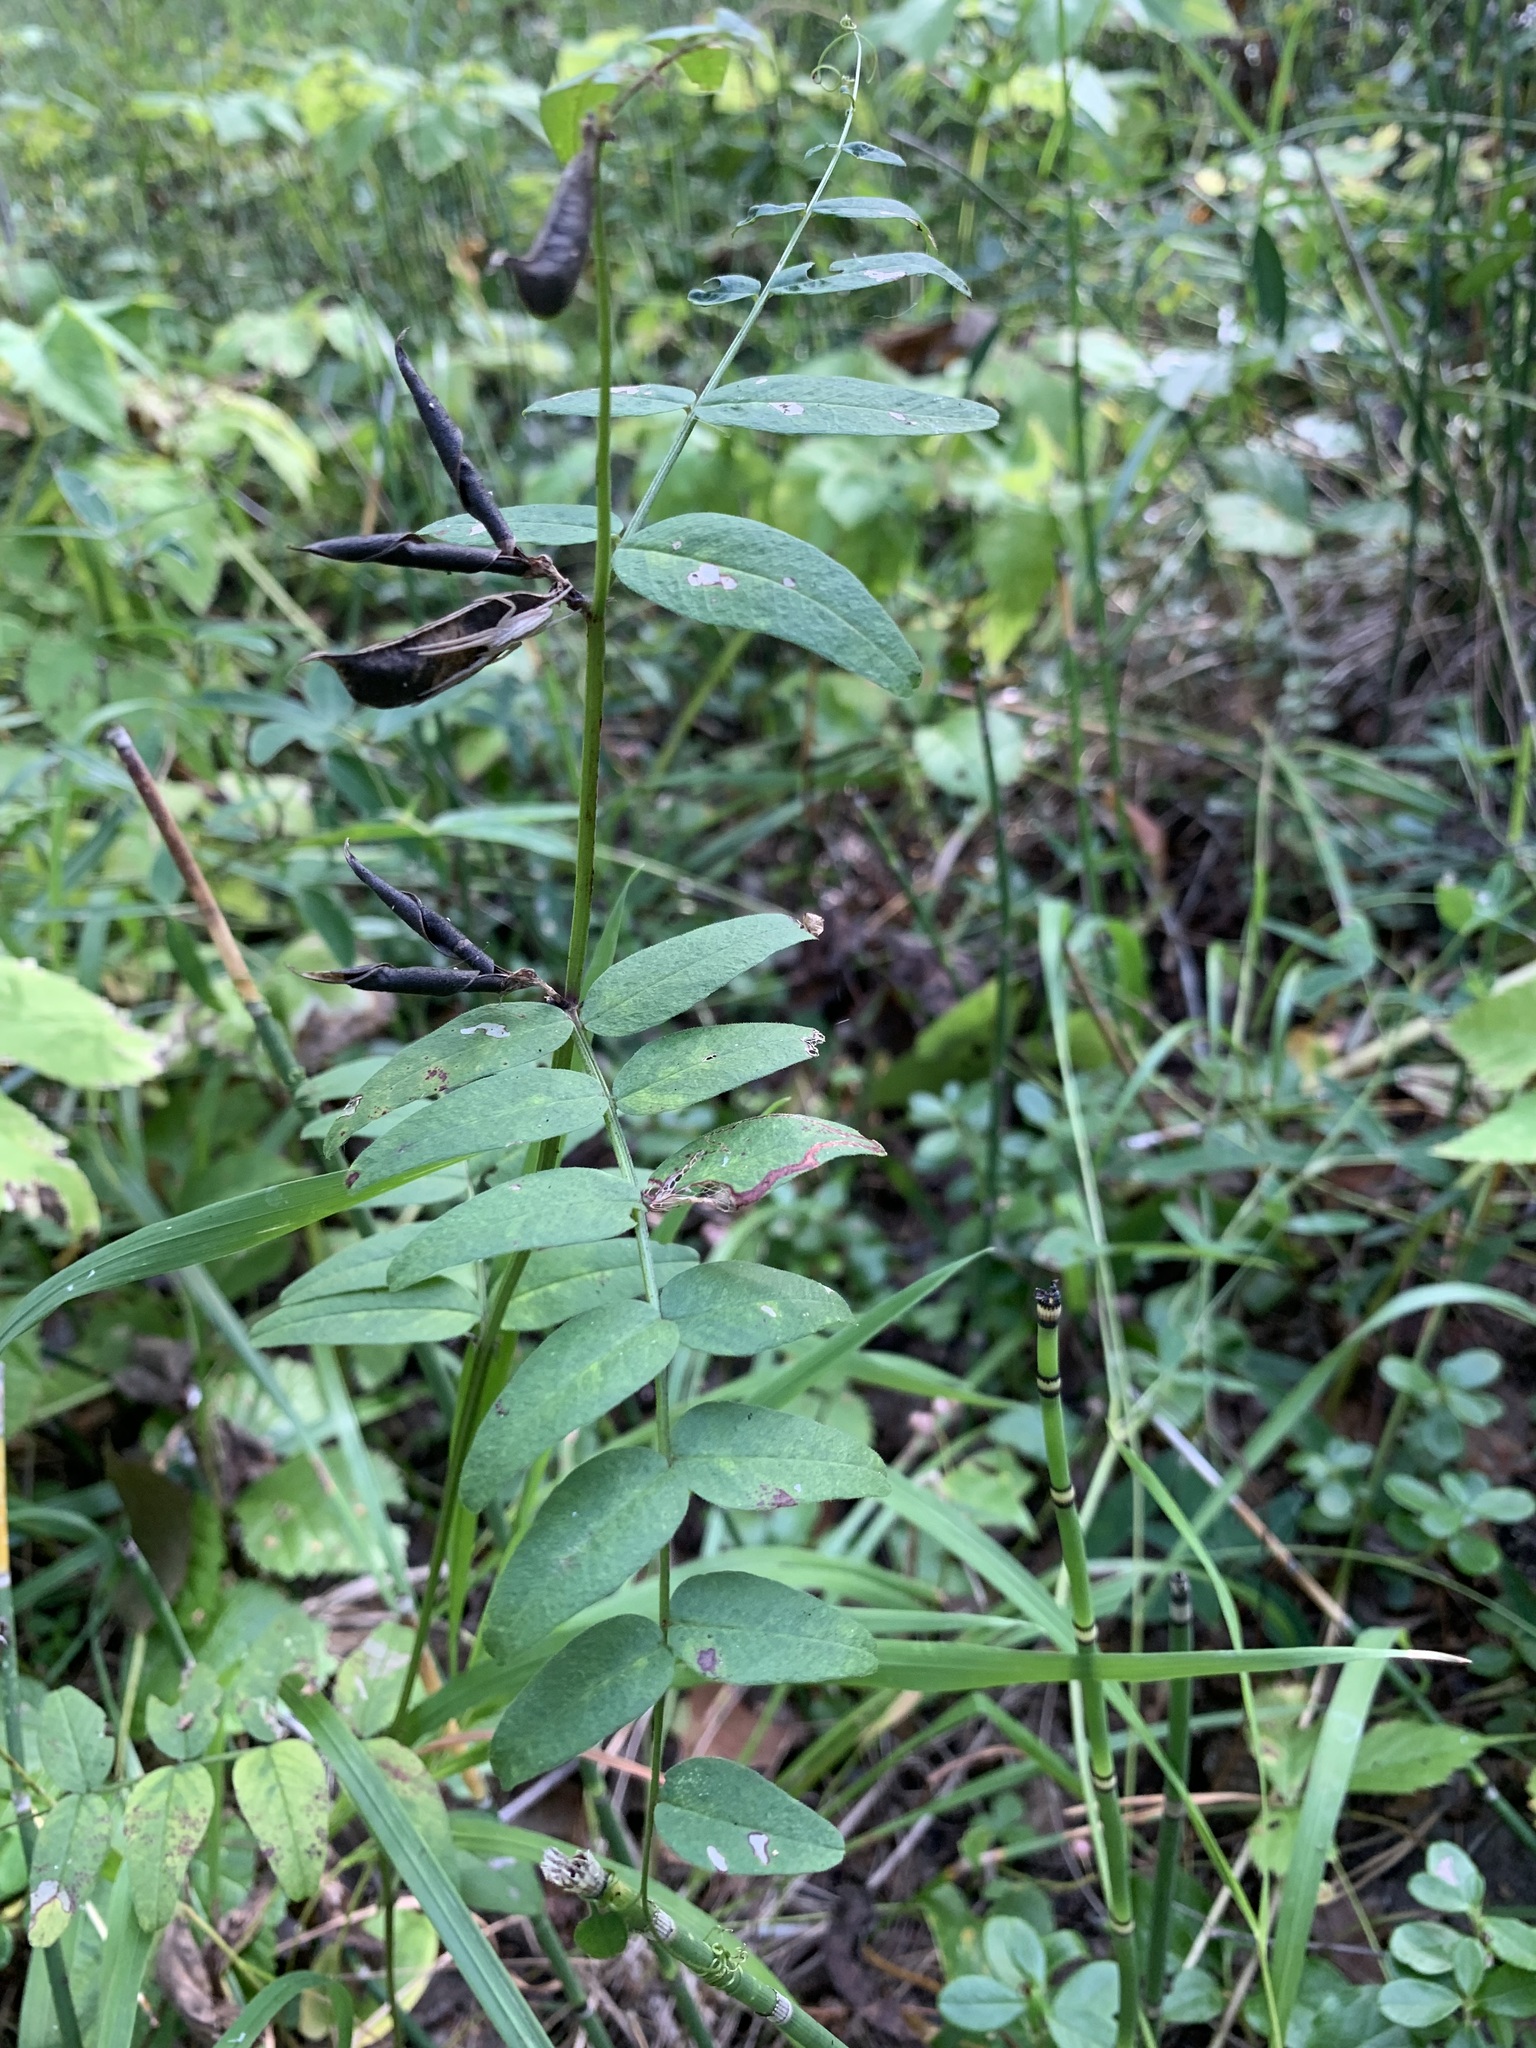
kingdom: Plantae
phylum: Tracheophyta
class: Magnoliopsida
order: Fabales
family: Fabaceae
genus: Vicia
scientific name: Vicia sepium
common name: Bush vetch
